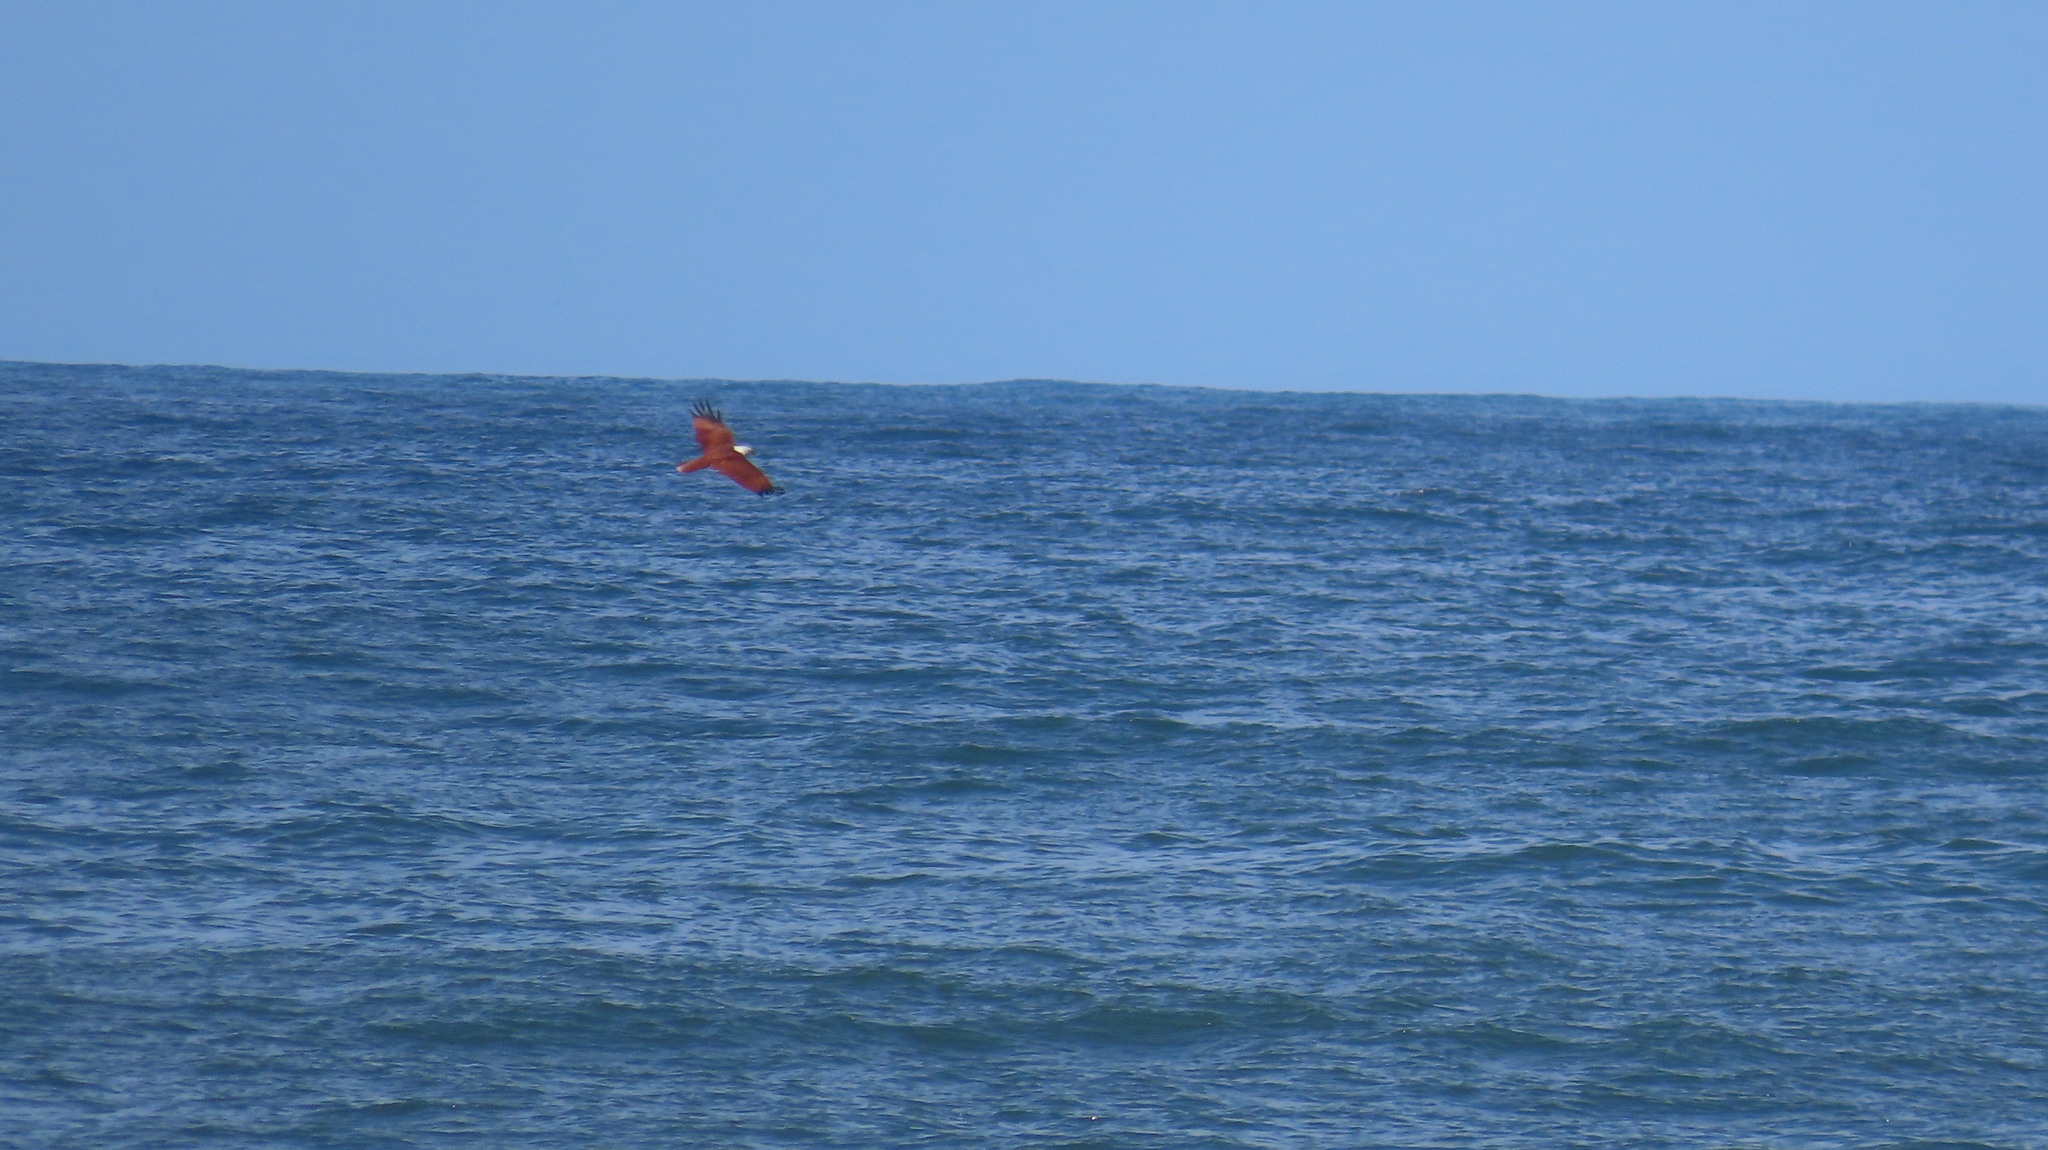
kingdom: Animalia
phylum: Chordata
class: Aves
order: Accipitriformes
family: Accipitridae
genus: Haliastur
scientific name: Haliastur indus
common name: Brahminy kite
